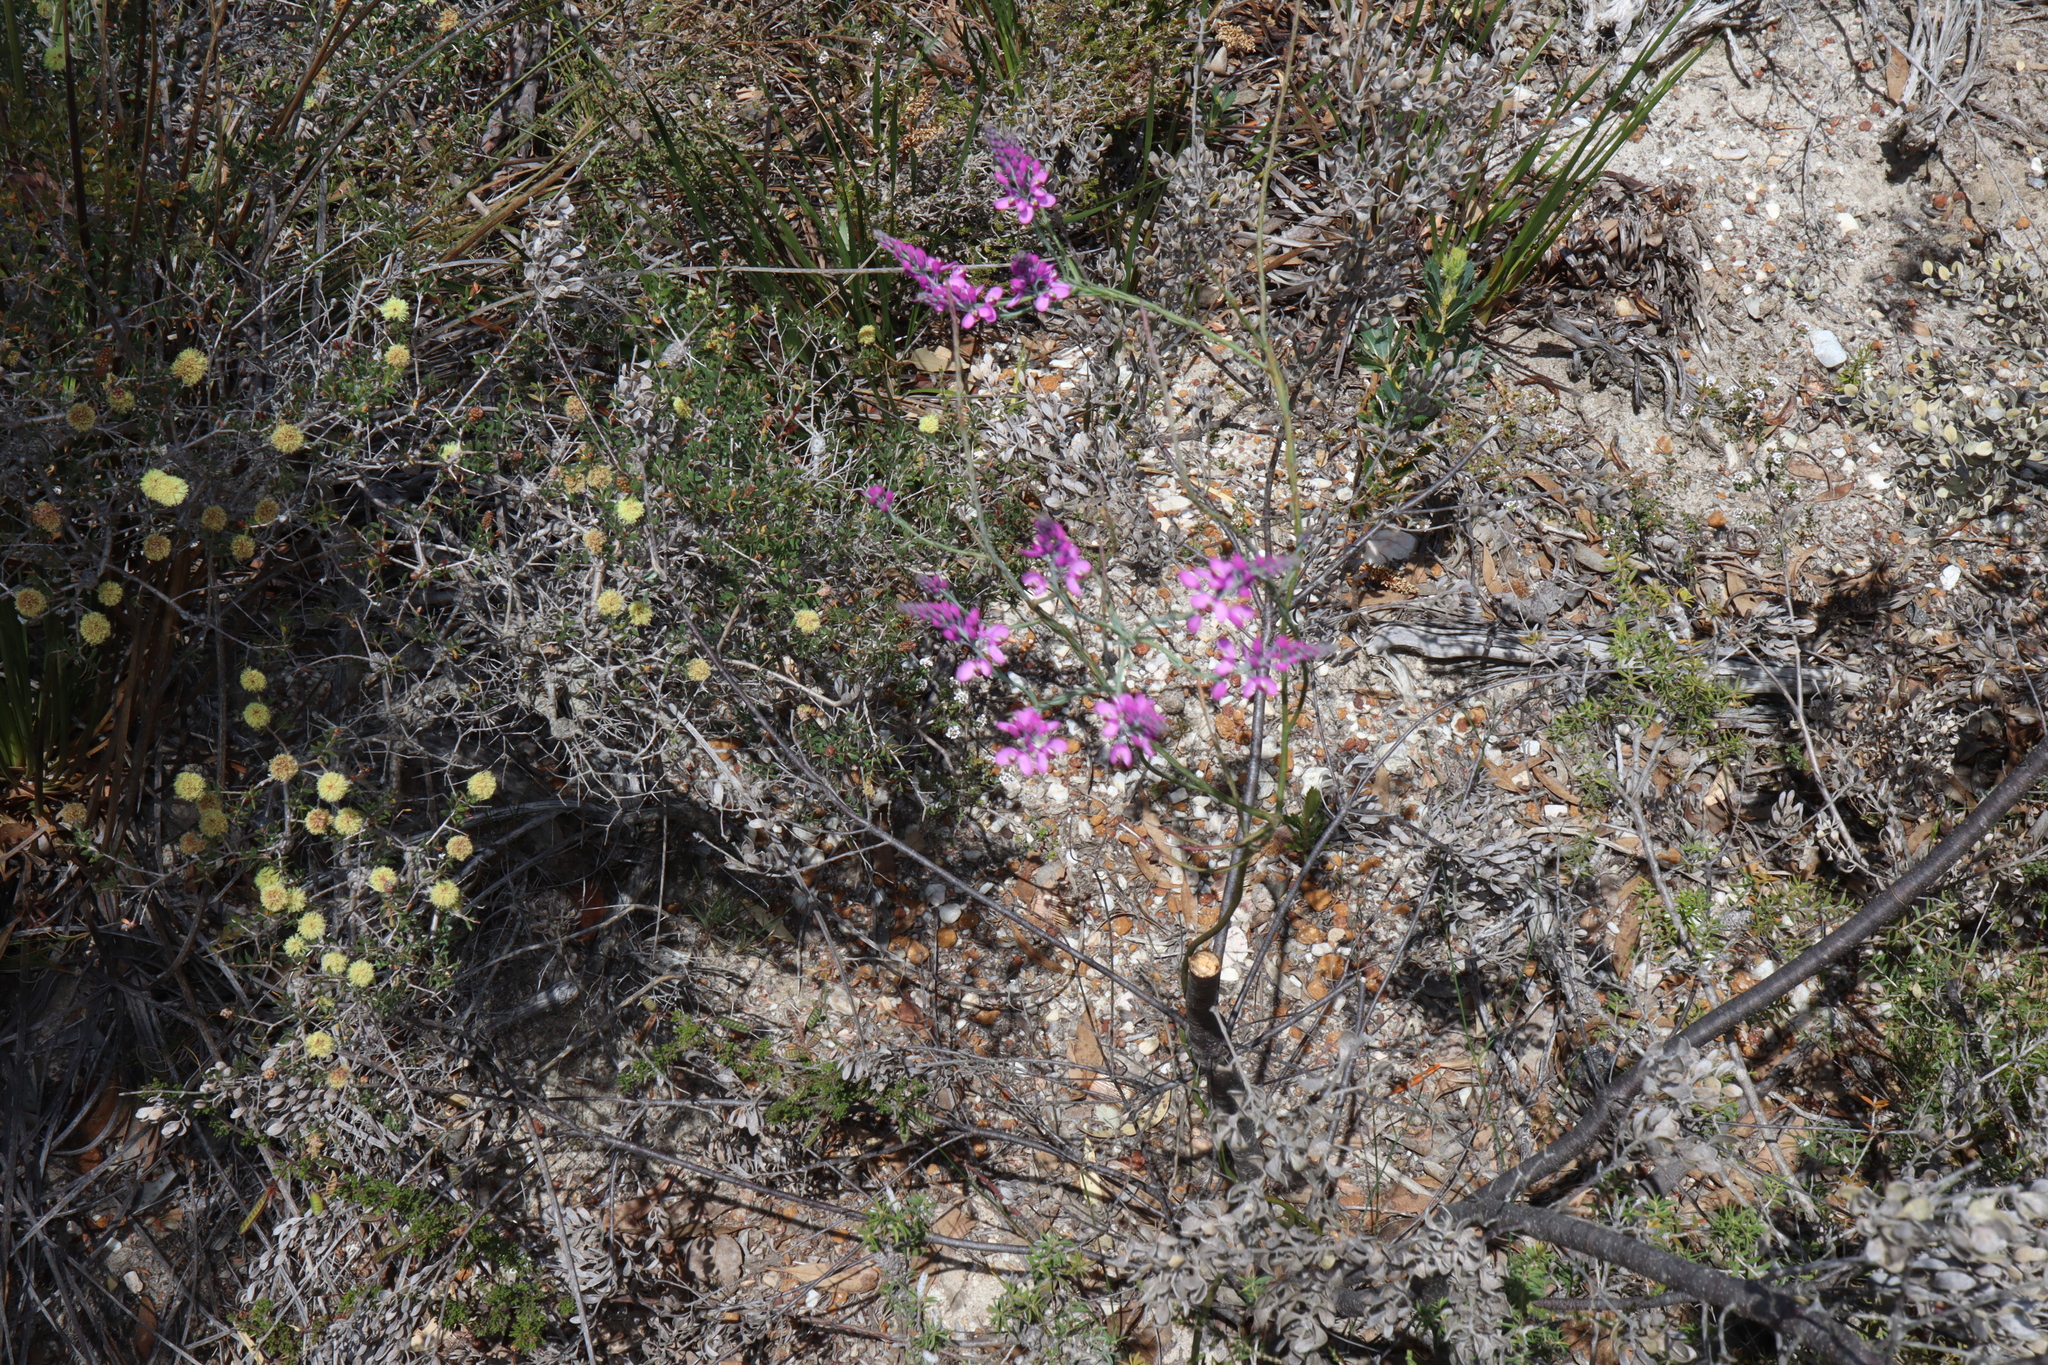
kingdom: Plantae
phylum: Tracheophyta
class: Magnoliopsida
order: Fabales
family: Polygalaceae
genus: Comesperma
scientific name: Comesperma virgatum
